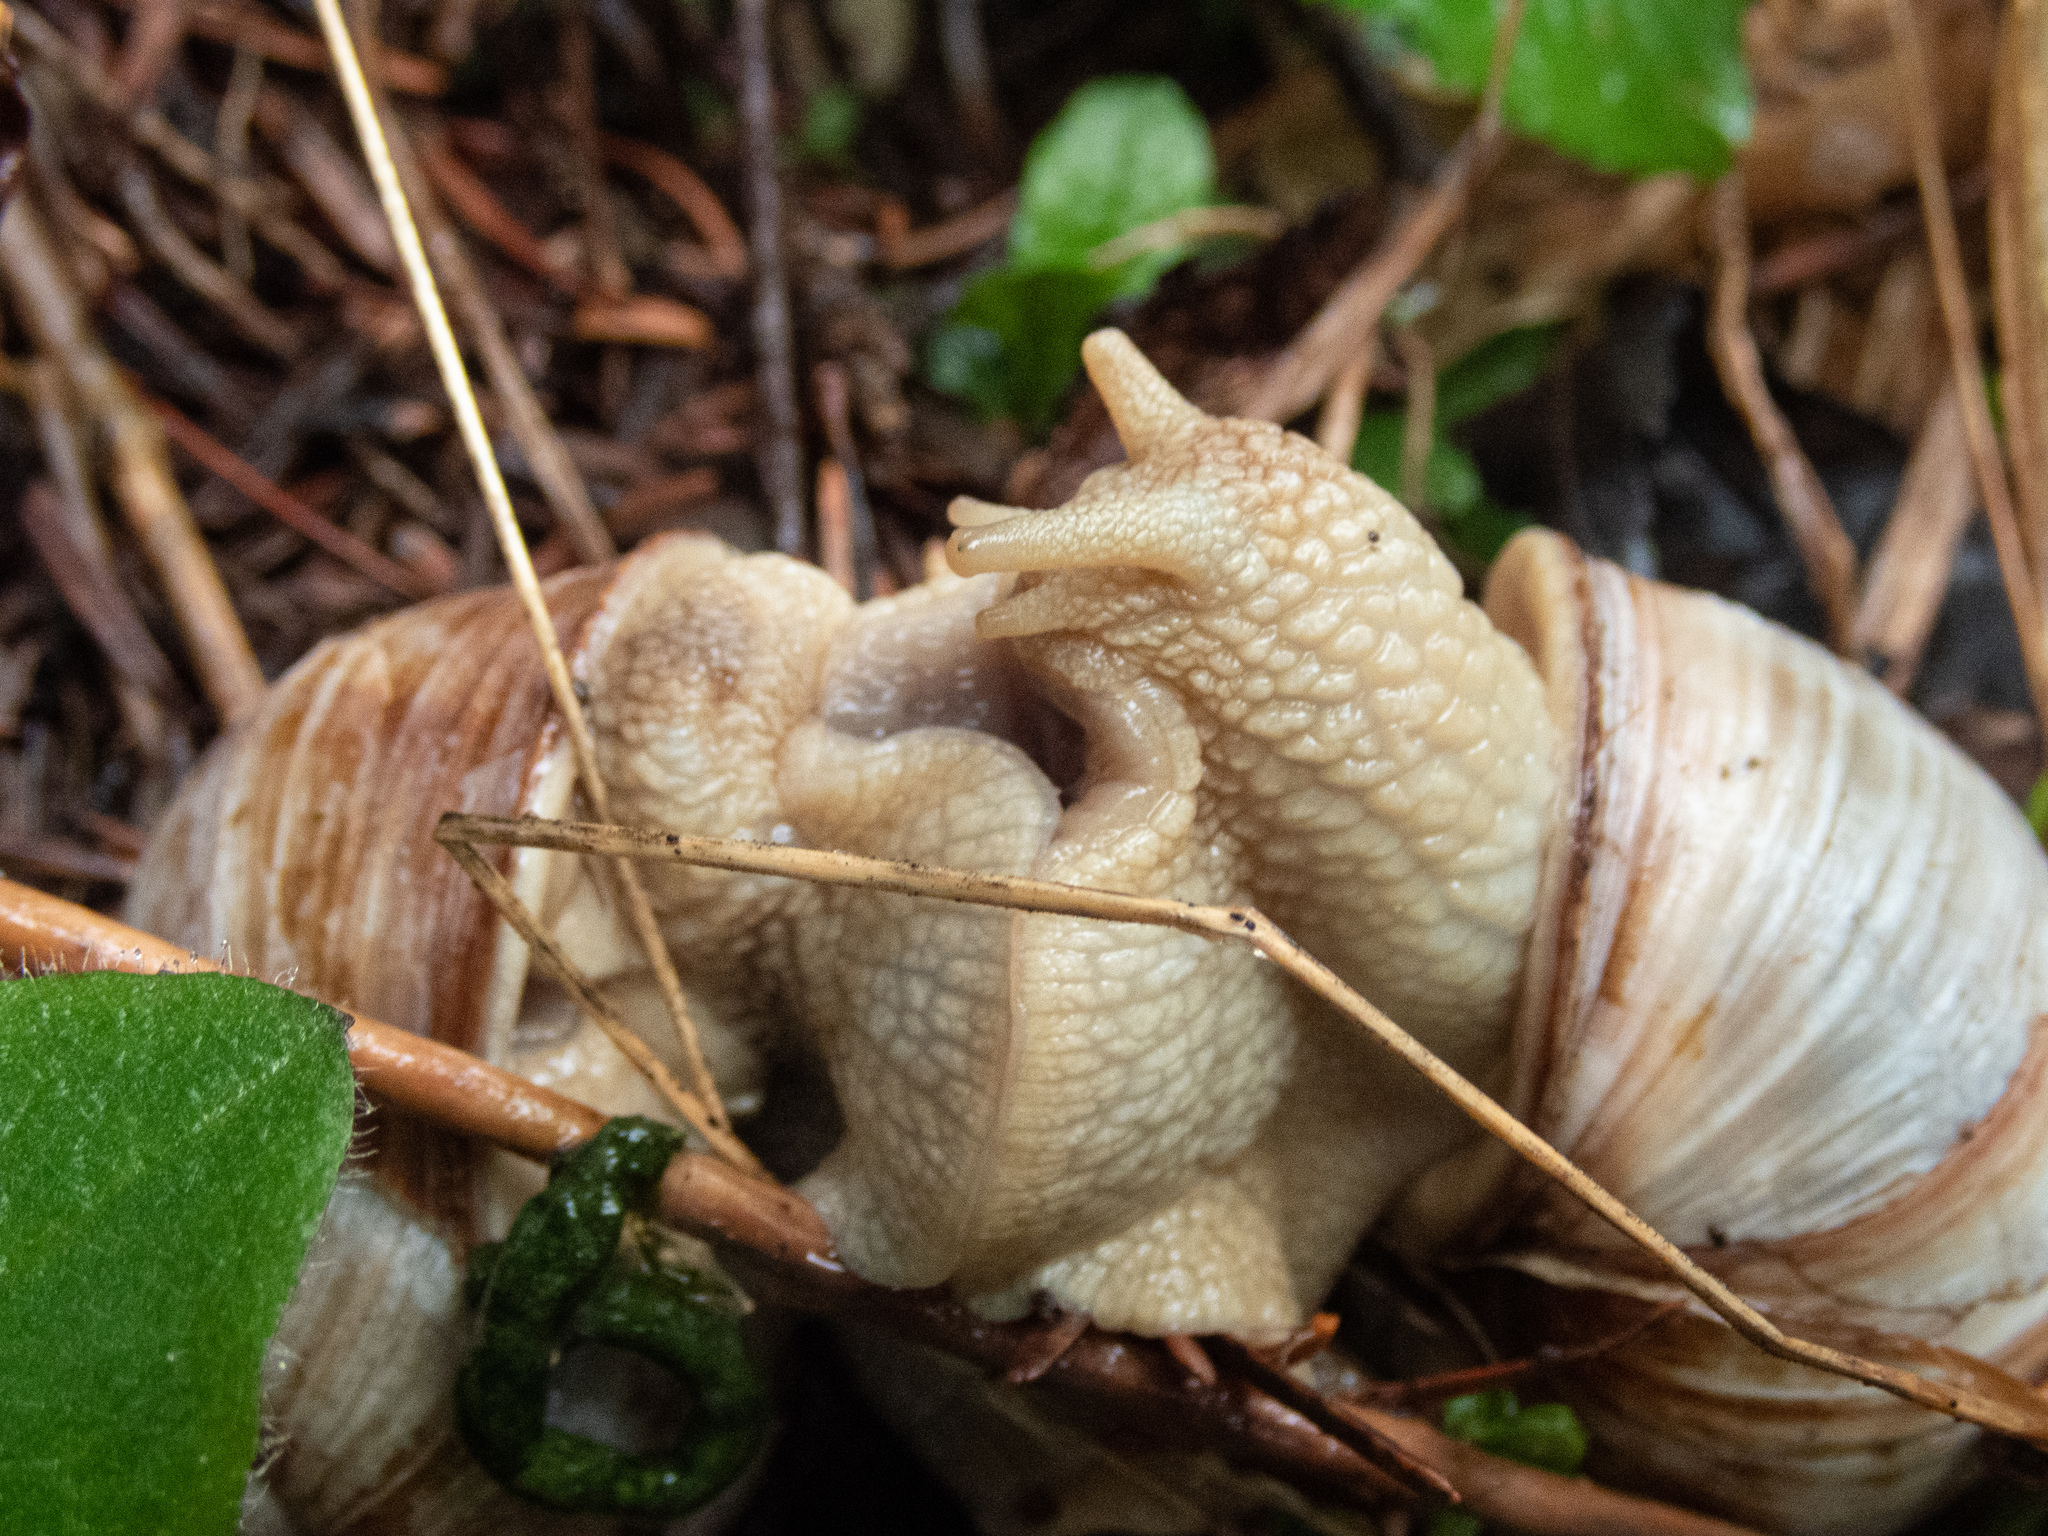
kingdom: Animalia
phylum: Mollusca
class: Gastropoda
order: Stylommatophora
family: Helicidae
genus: Helix
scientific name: Helix pomatia
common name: Roman snail
